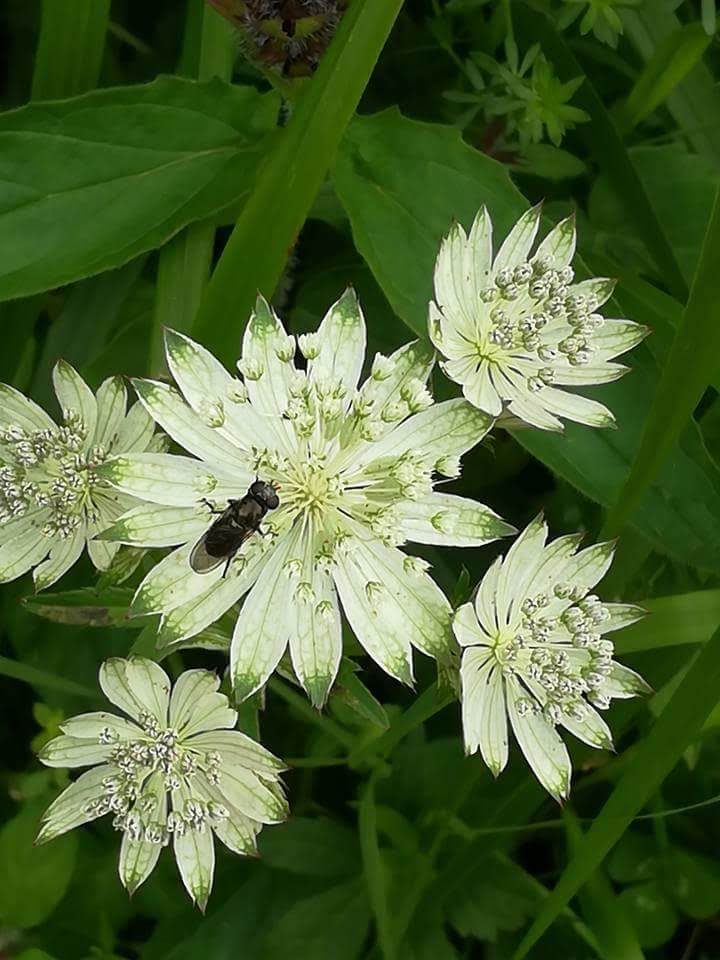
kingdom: Plantae
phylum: Tracheophyta
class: Magnoliopsida
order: Apiales
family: Apiaceae
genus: Astrantia
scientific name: Astrantia major
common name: Greater masterwort
